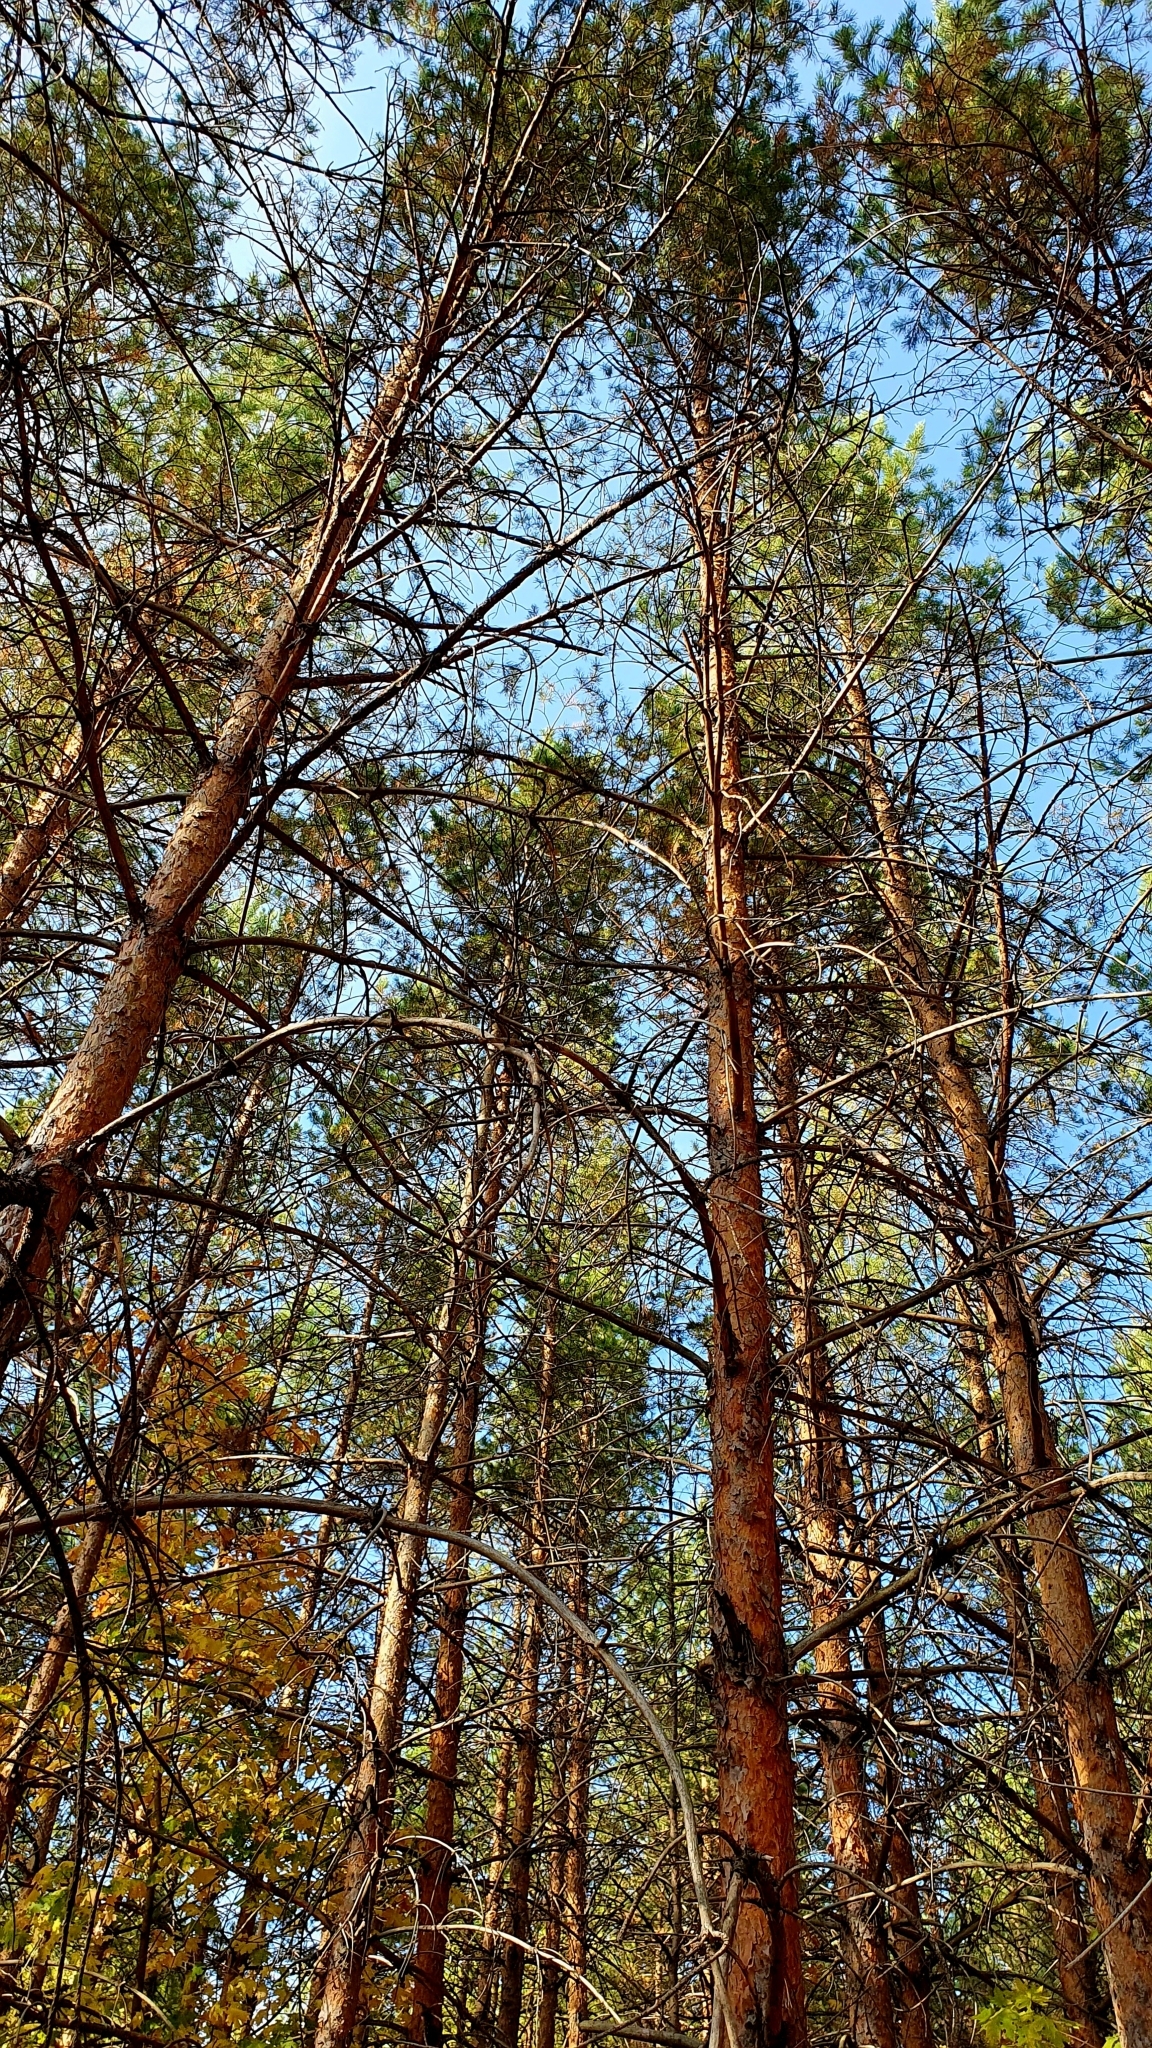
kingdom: Plantae
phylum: Tracheophyta
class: Pinopsida
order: Pinales
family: Pinaceae
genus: Pinus
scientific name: Pinus sylvestris
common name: Scots pine
